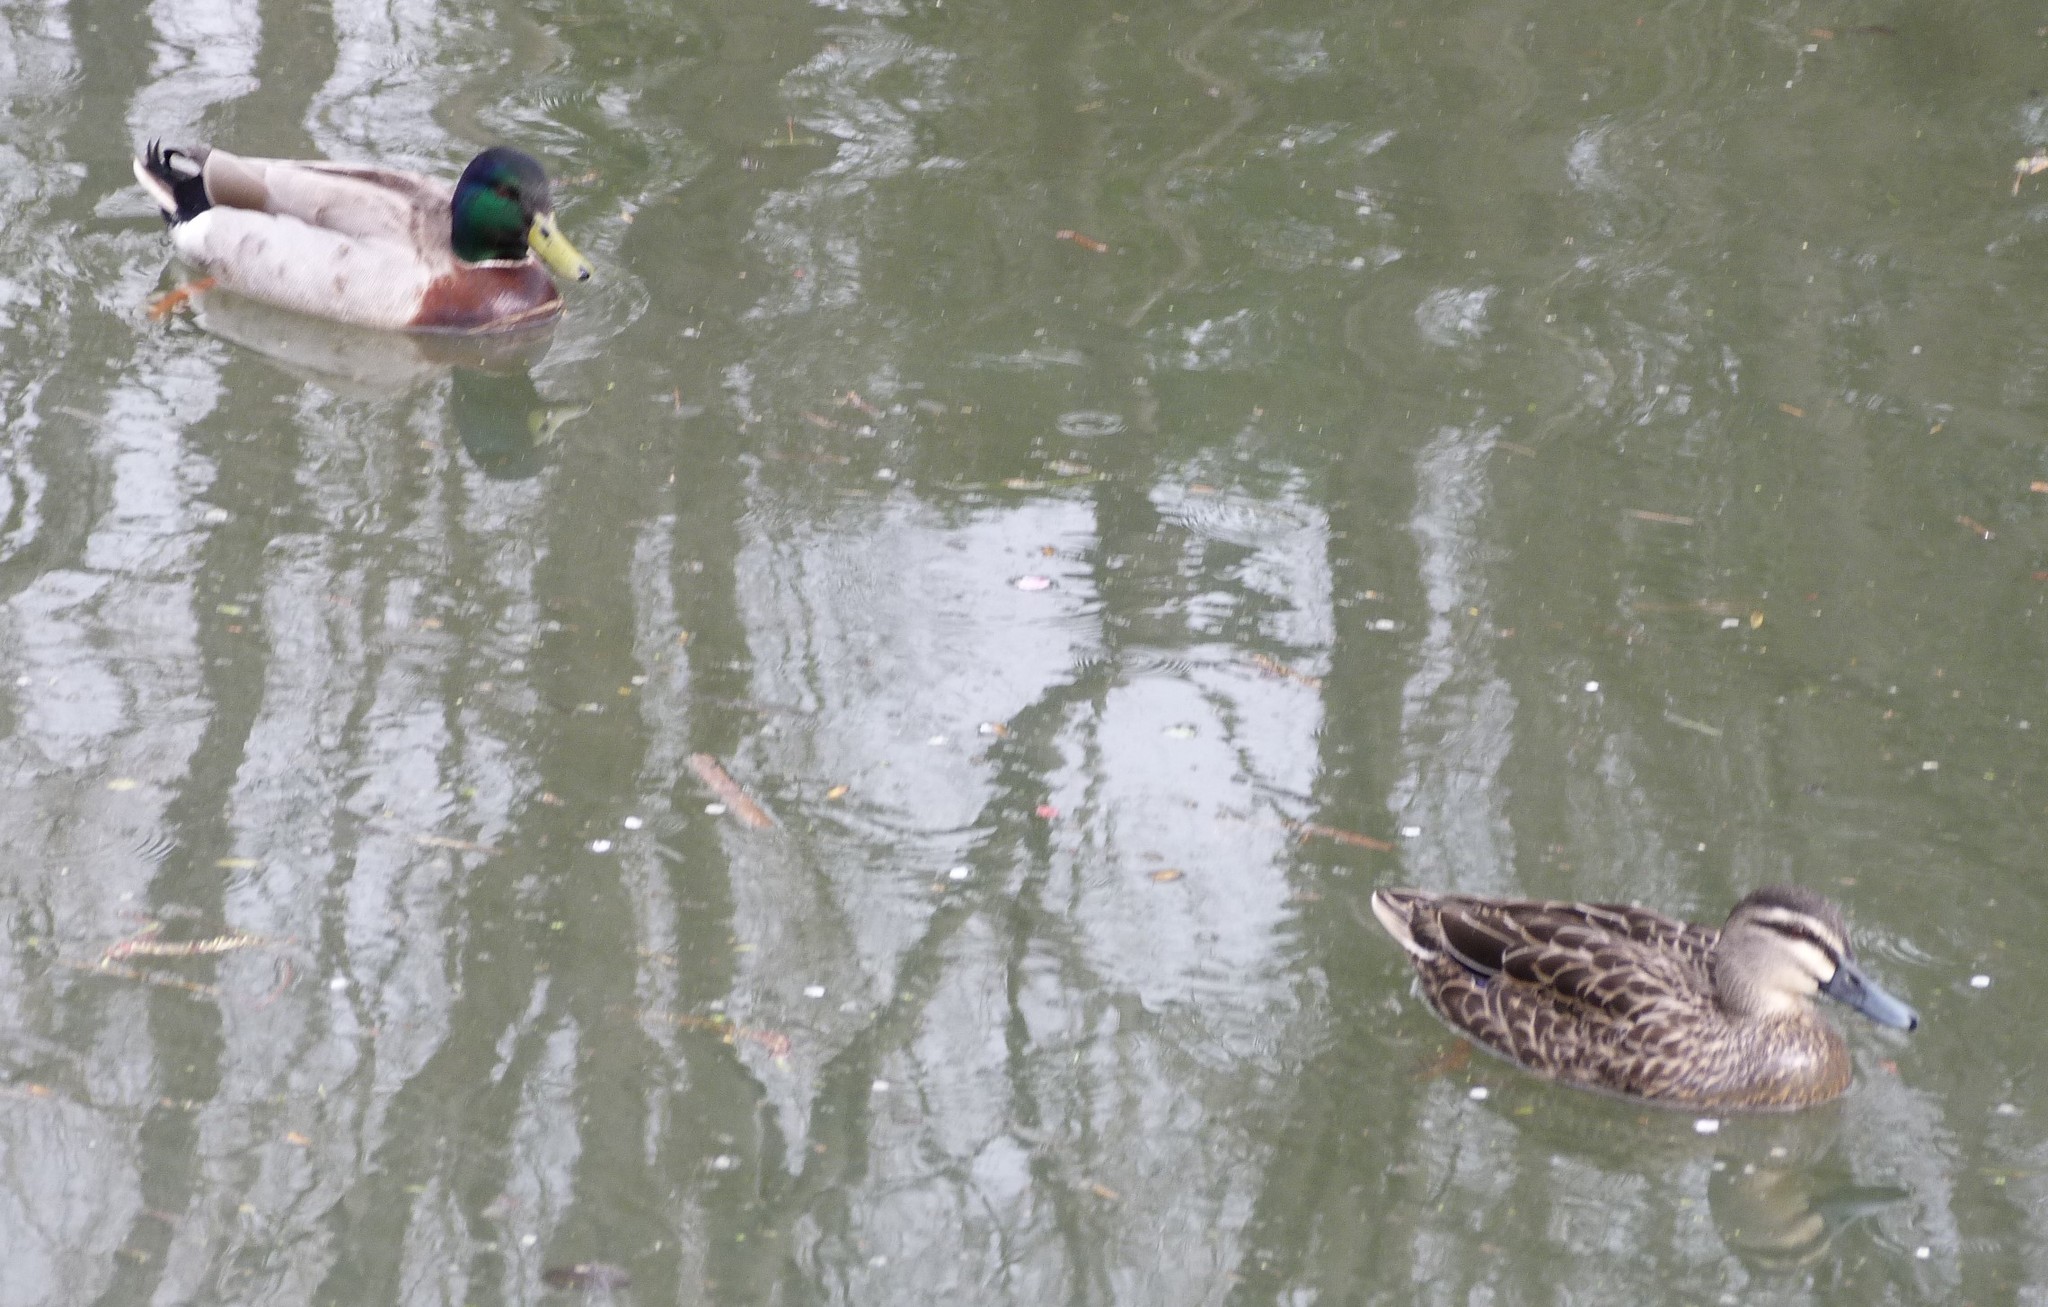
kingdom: Animalia
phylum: Chordata
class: Aves
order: Anseriformes
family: Anatidae
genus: Anas
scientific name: Anas platyrhynchos
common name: Mallard
